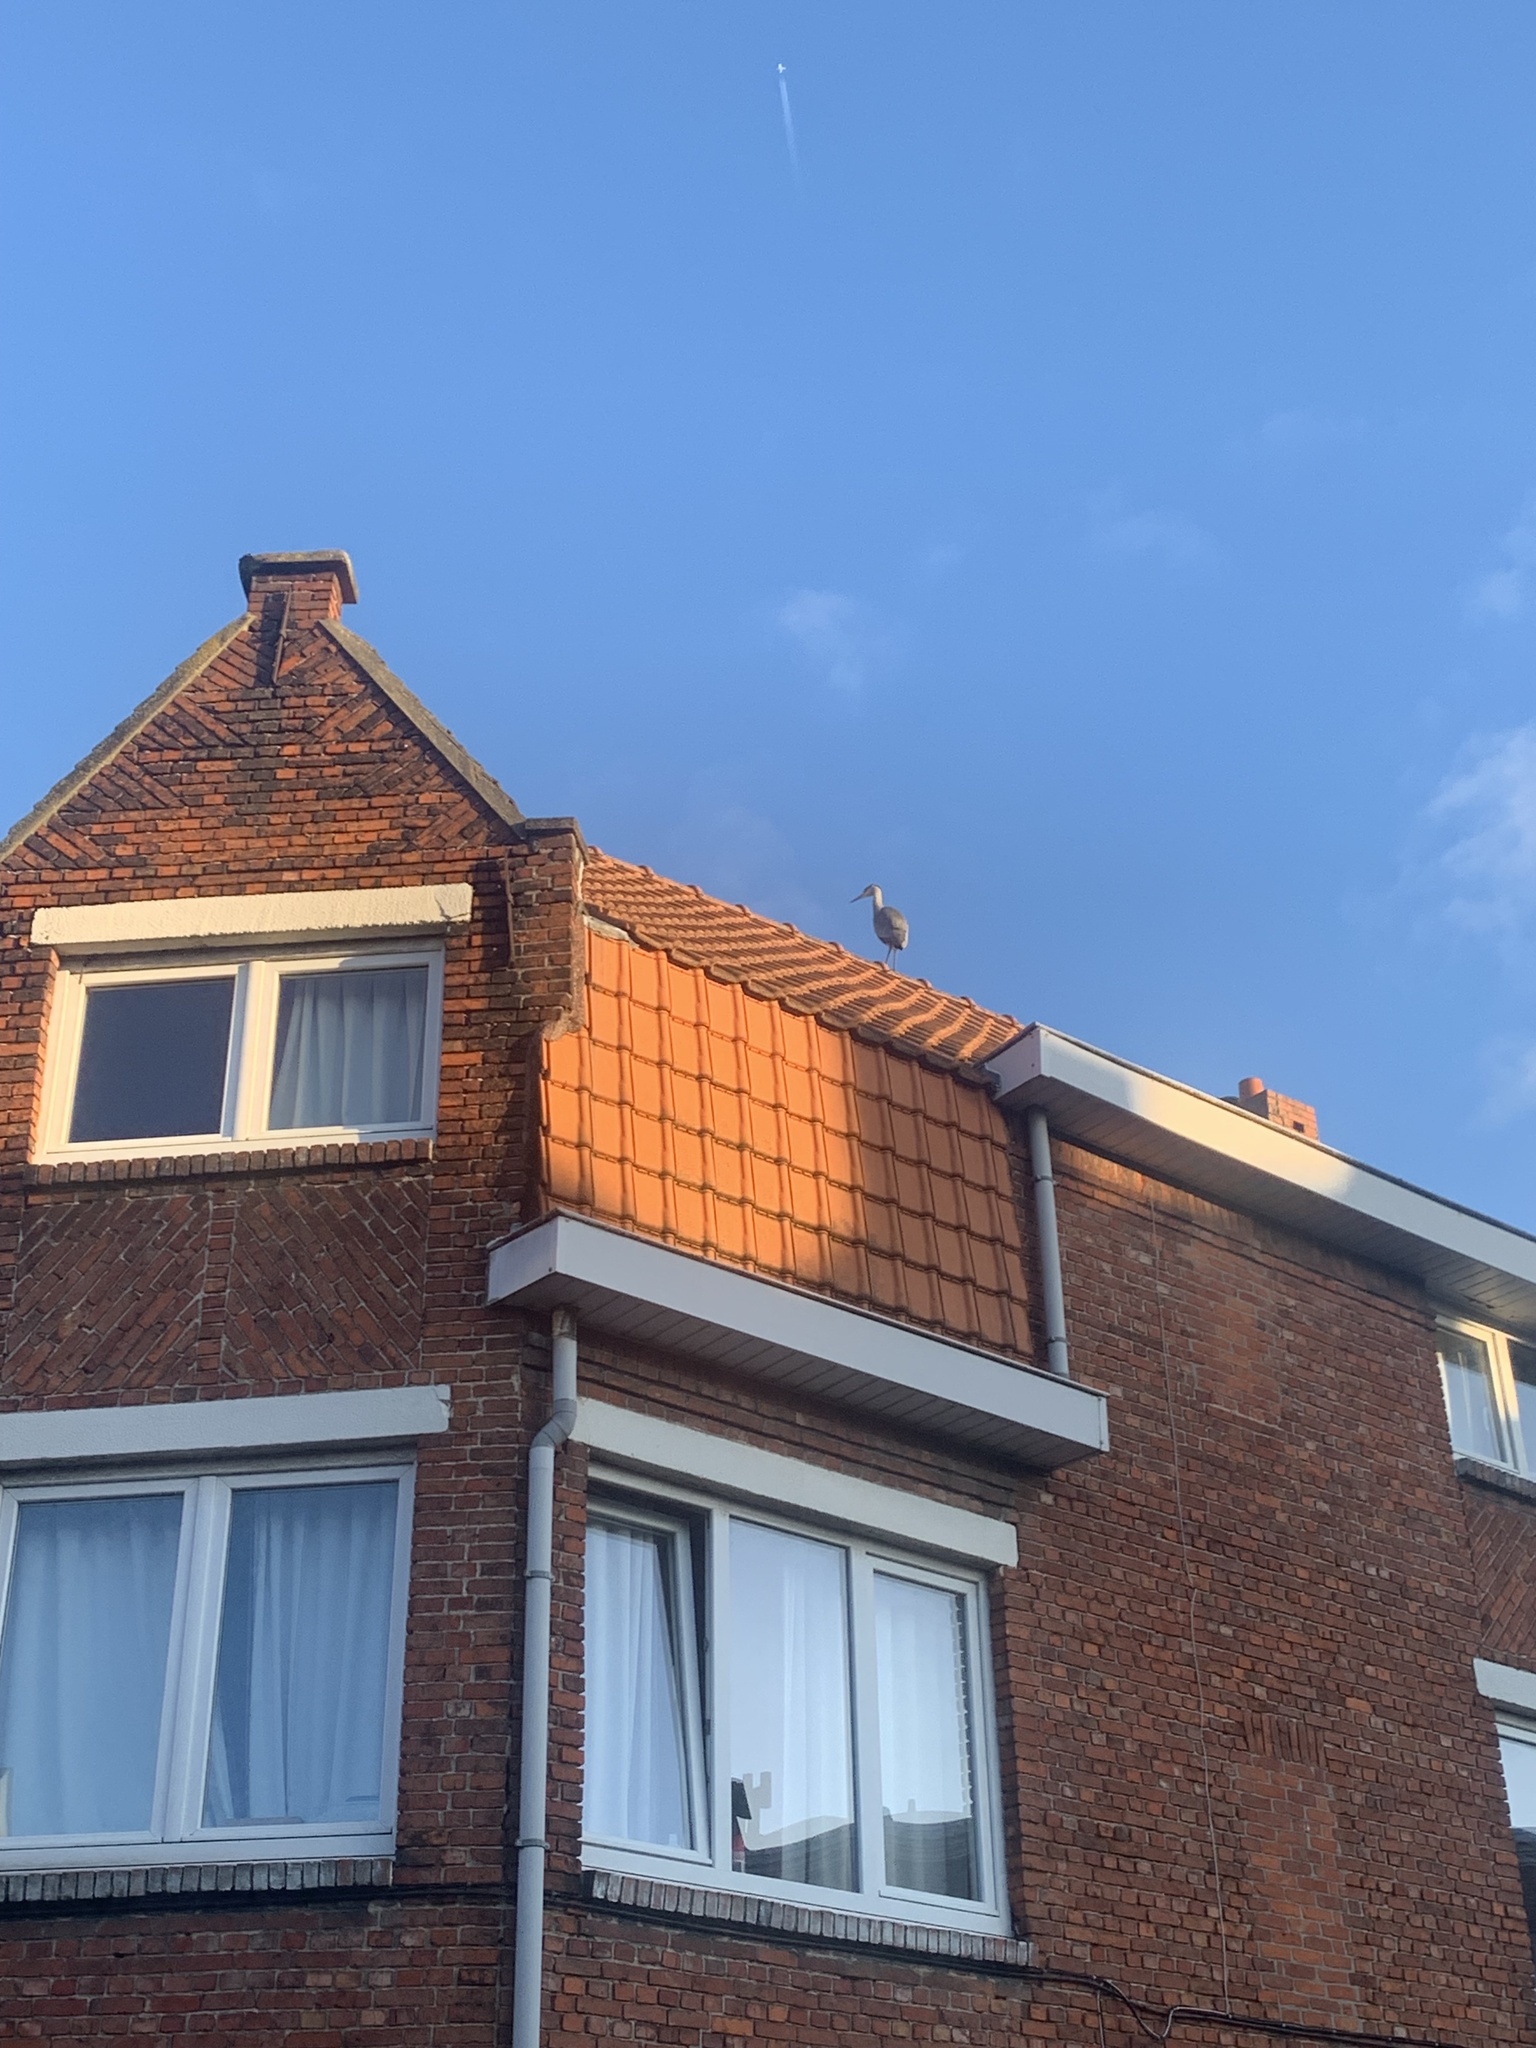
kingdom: Animalia
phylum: Chordata
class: Aves
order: Pelecaniformes
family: Ardeidae
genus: Ardea
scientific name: Ardea cinerea
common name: Grey heron
